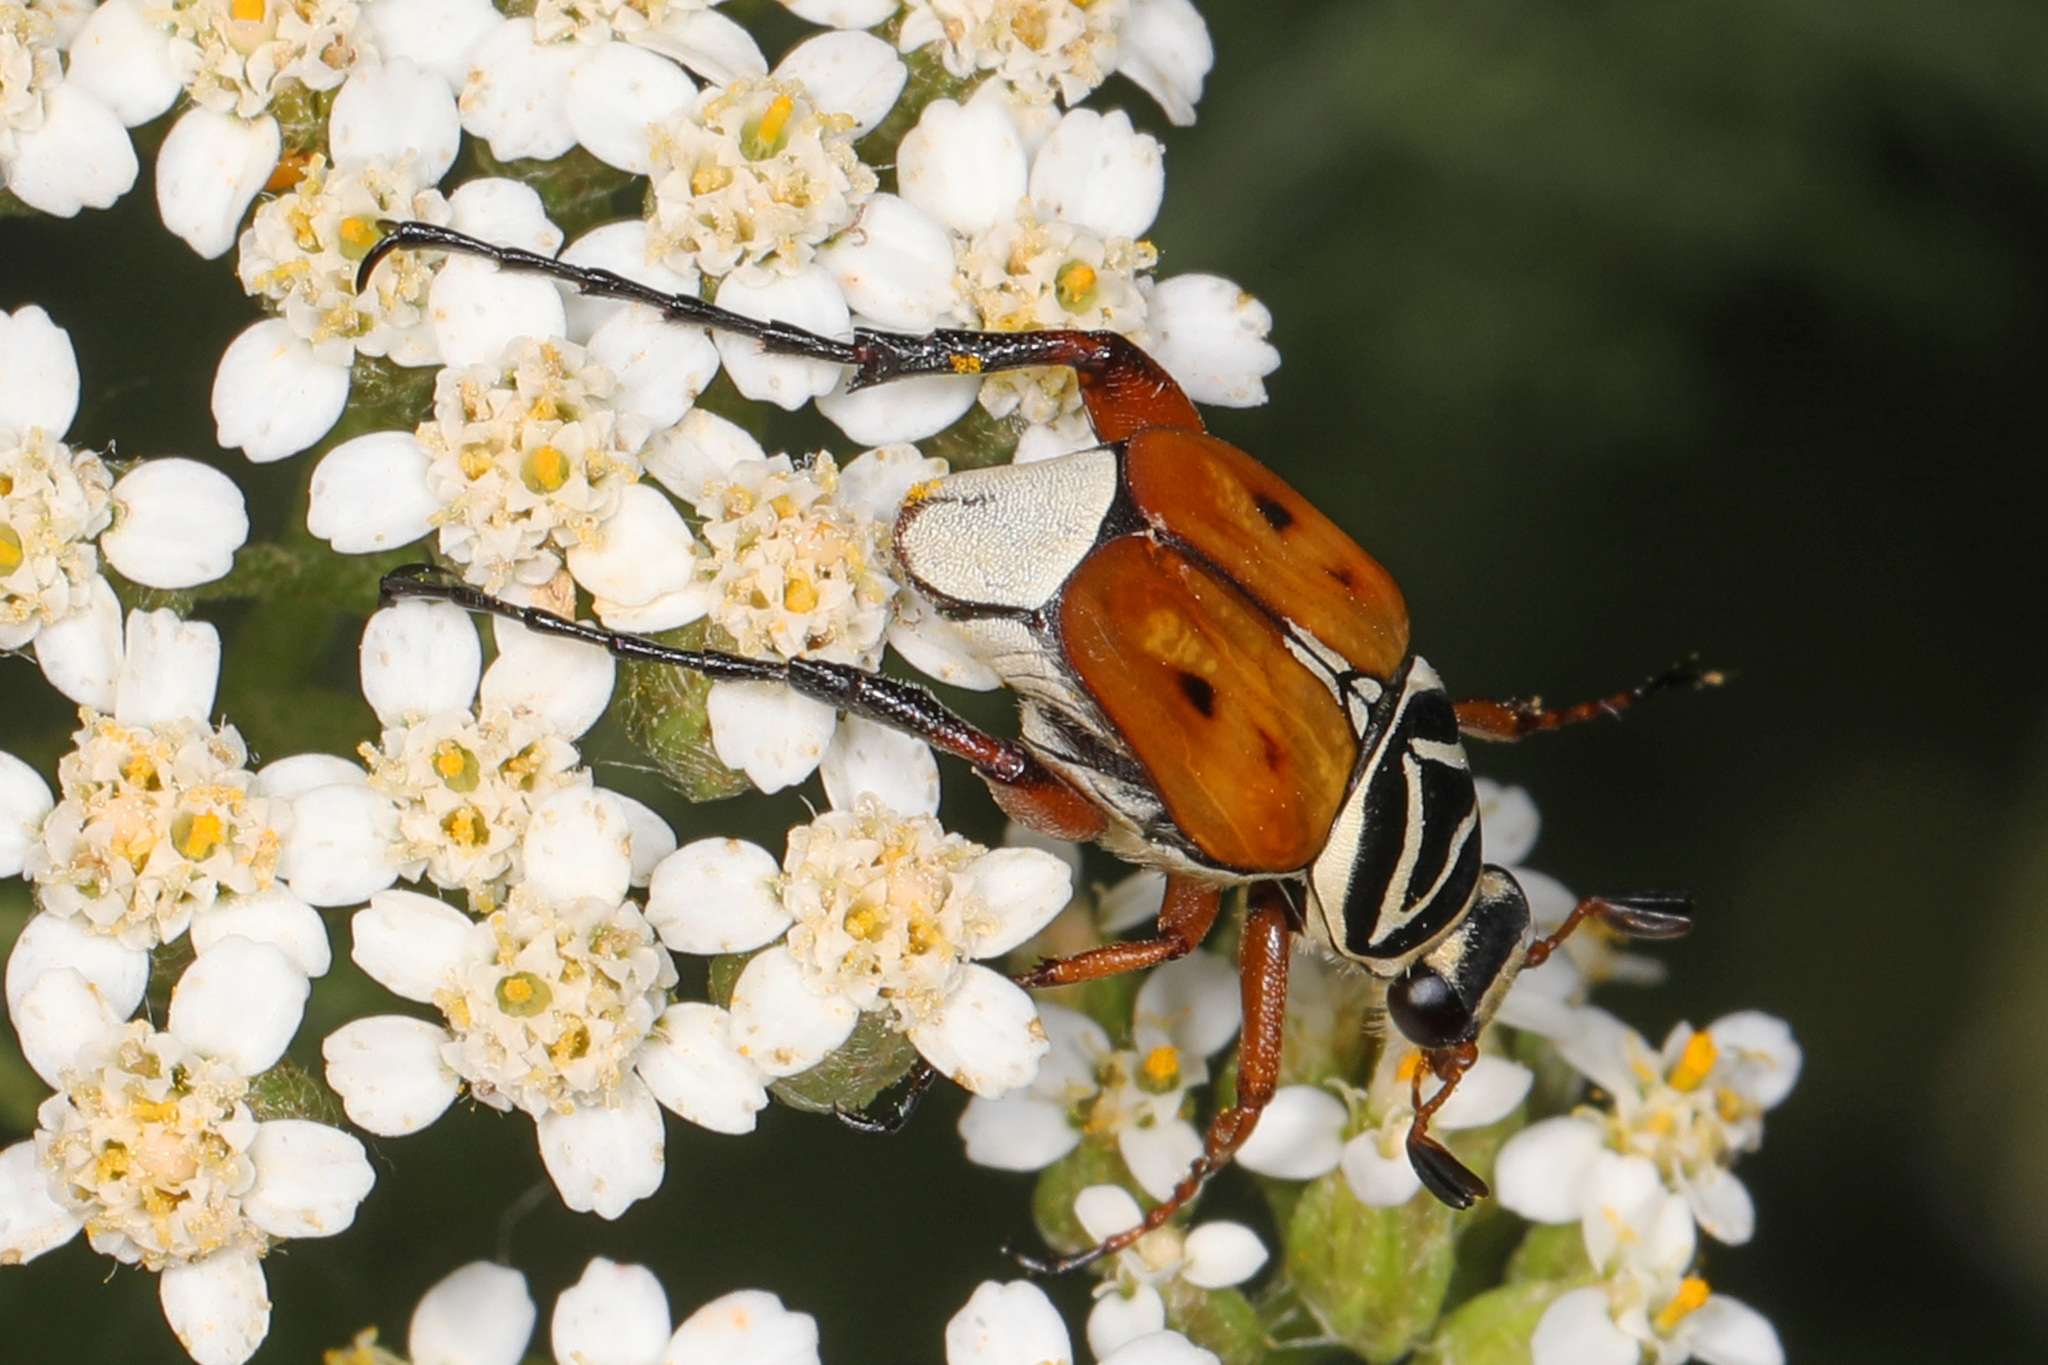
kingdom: Animalia
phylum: Arthropoda
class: Insecta
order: Coleoptera
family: Scarabaeidae
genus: Trigonopeltastes
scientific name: Trigonopeltastes delta
